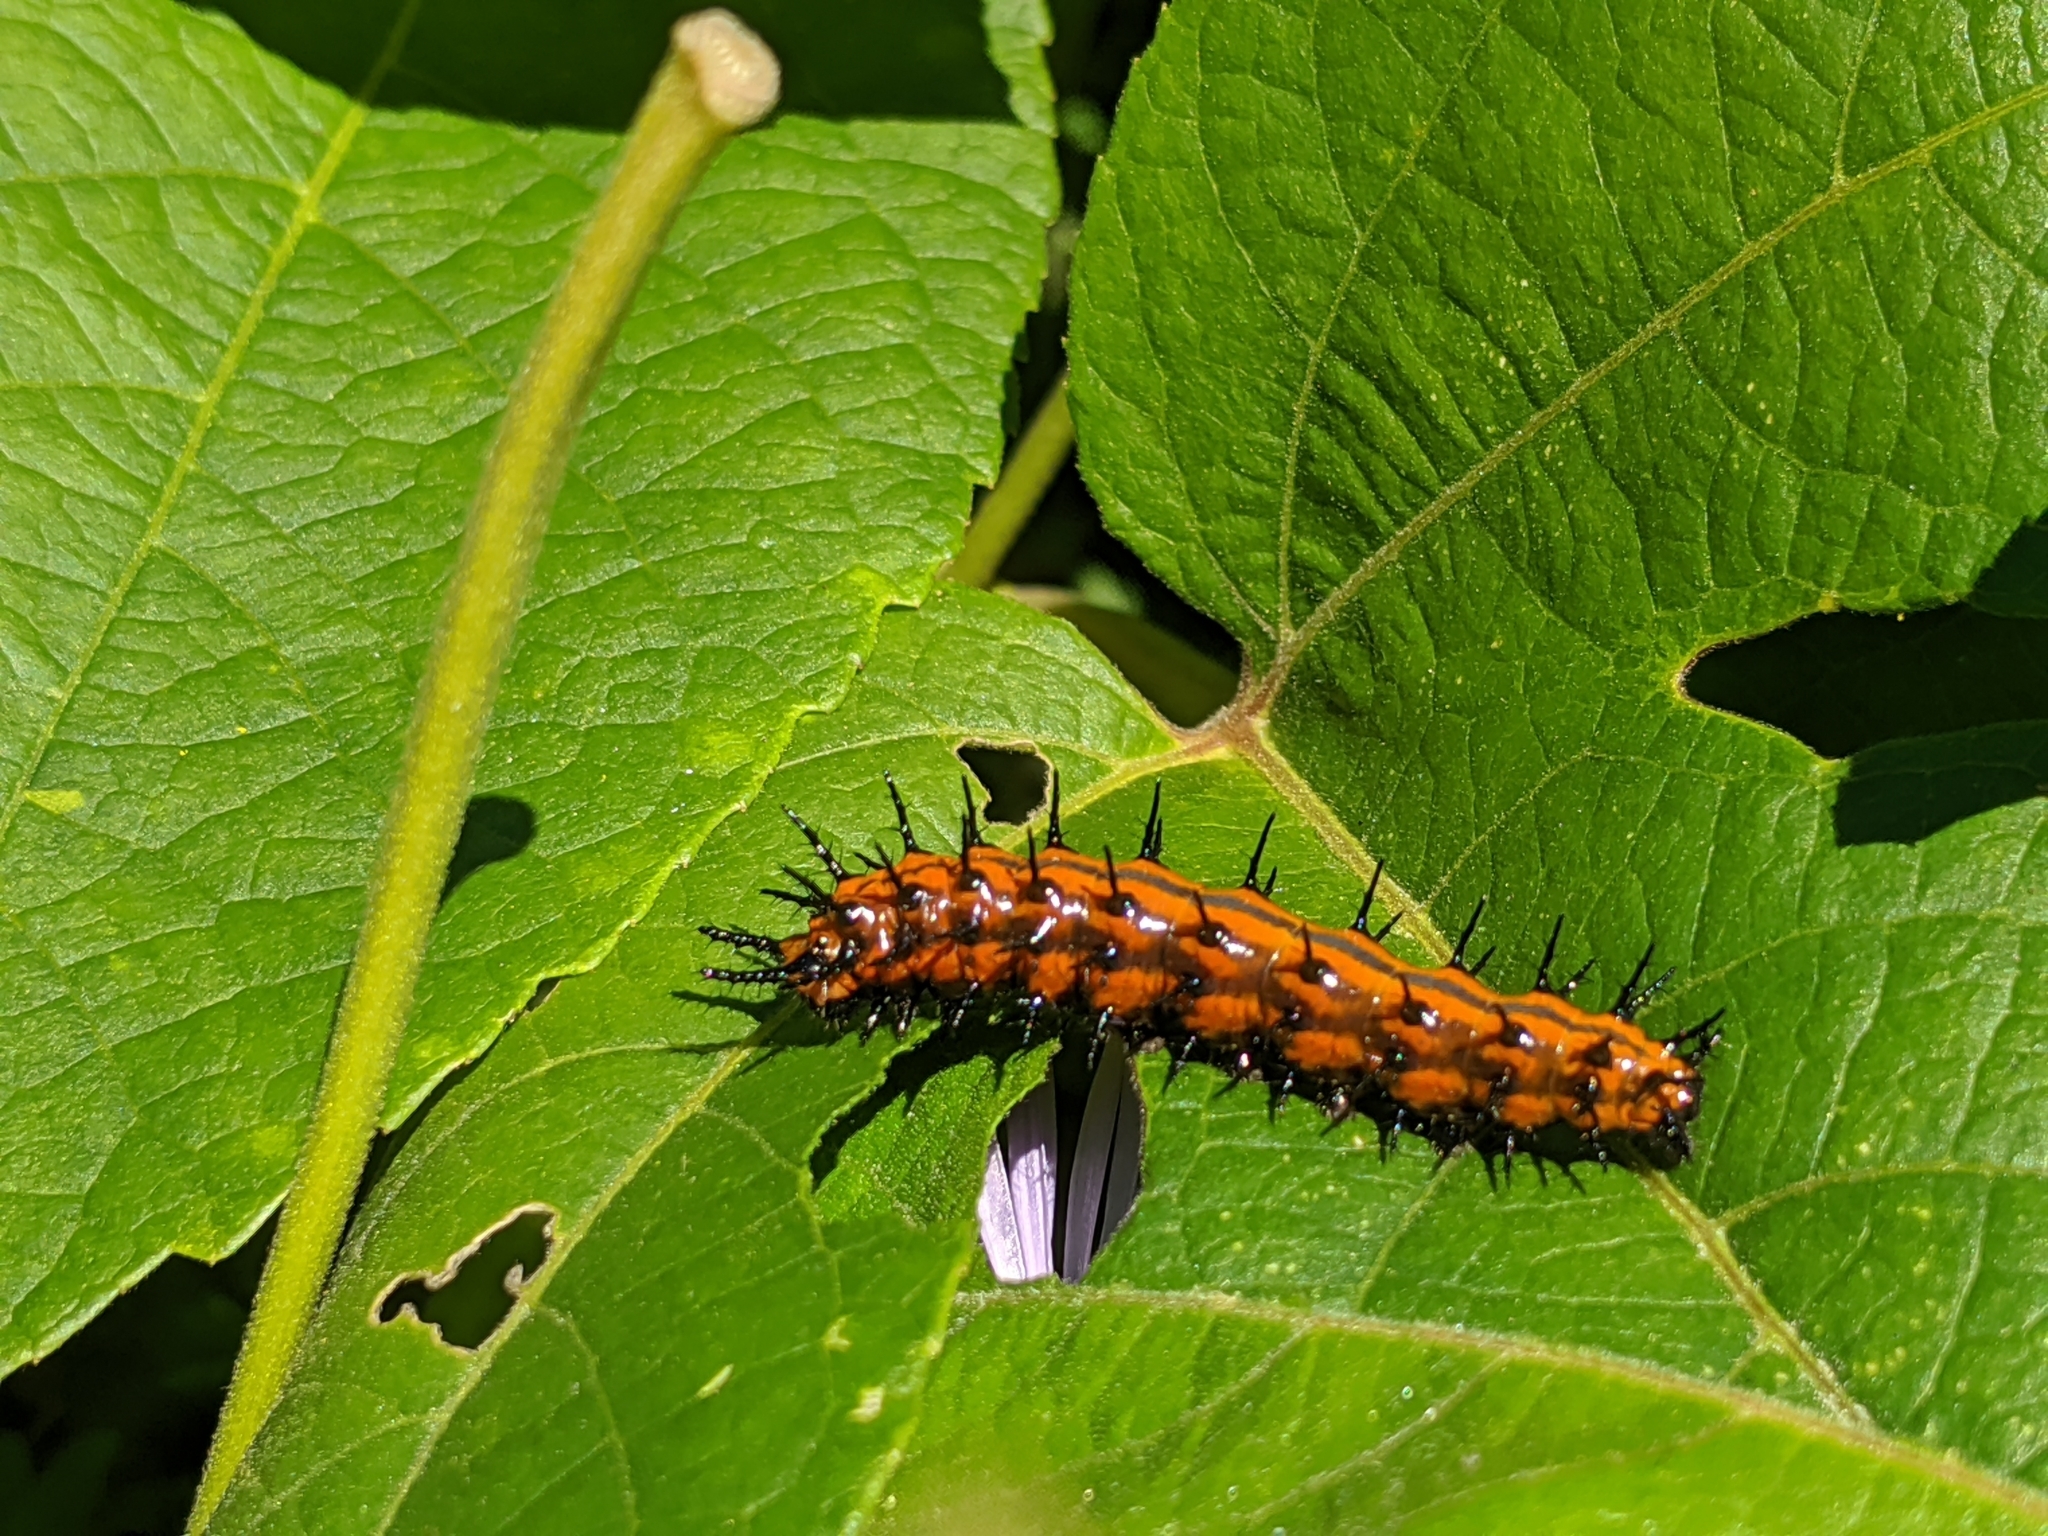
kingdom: Animalia
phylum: Arthropoda
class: Insecta
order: Lepidoptera
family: Nymphalidae
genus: Dione
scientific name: Dione vanillae
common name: Gulf fritillary
